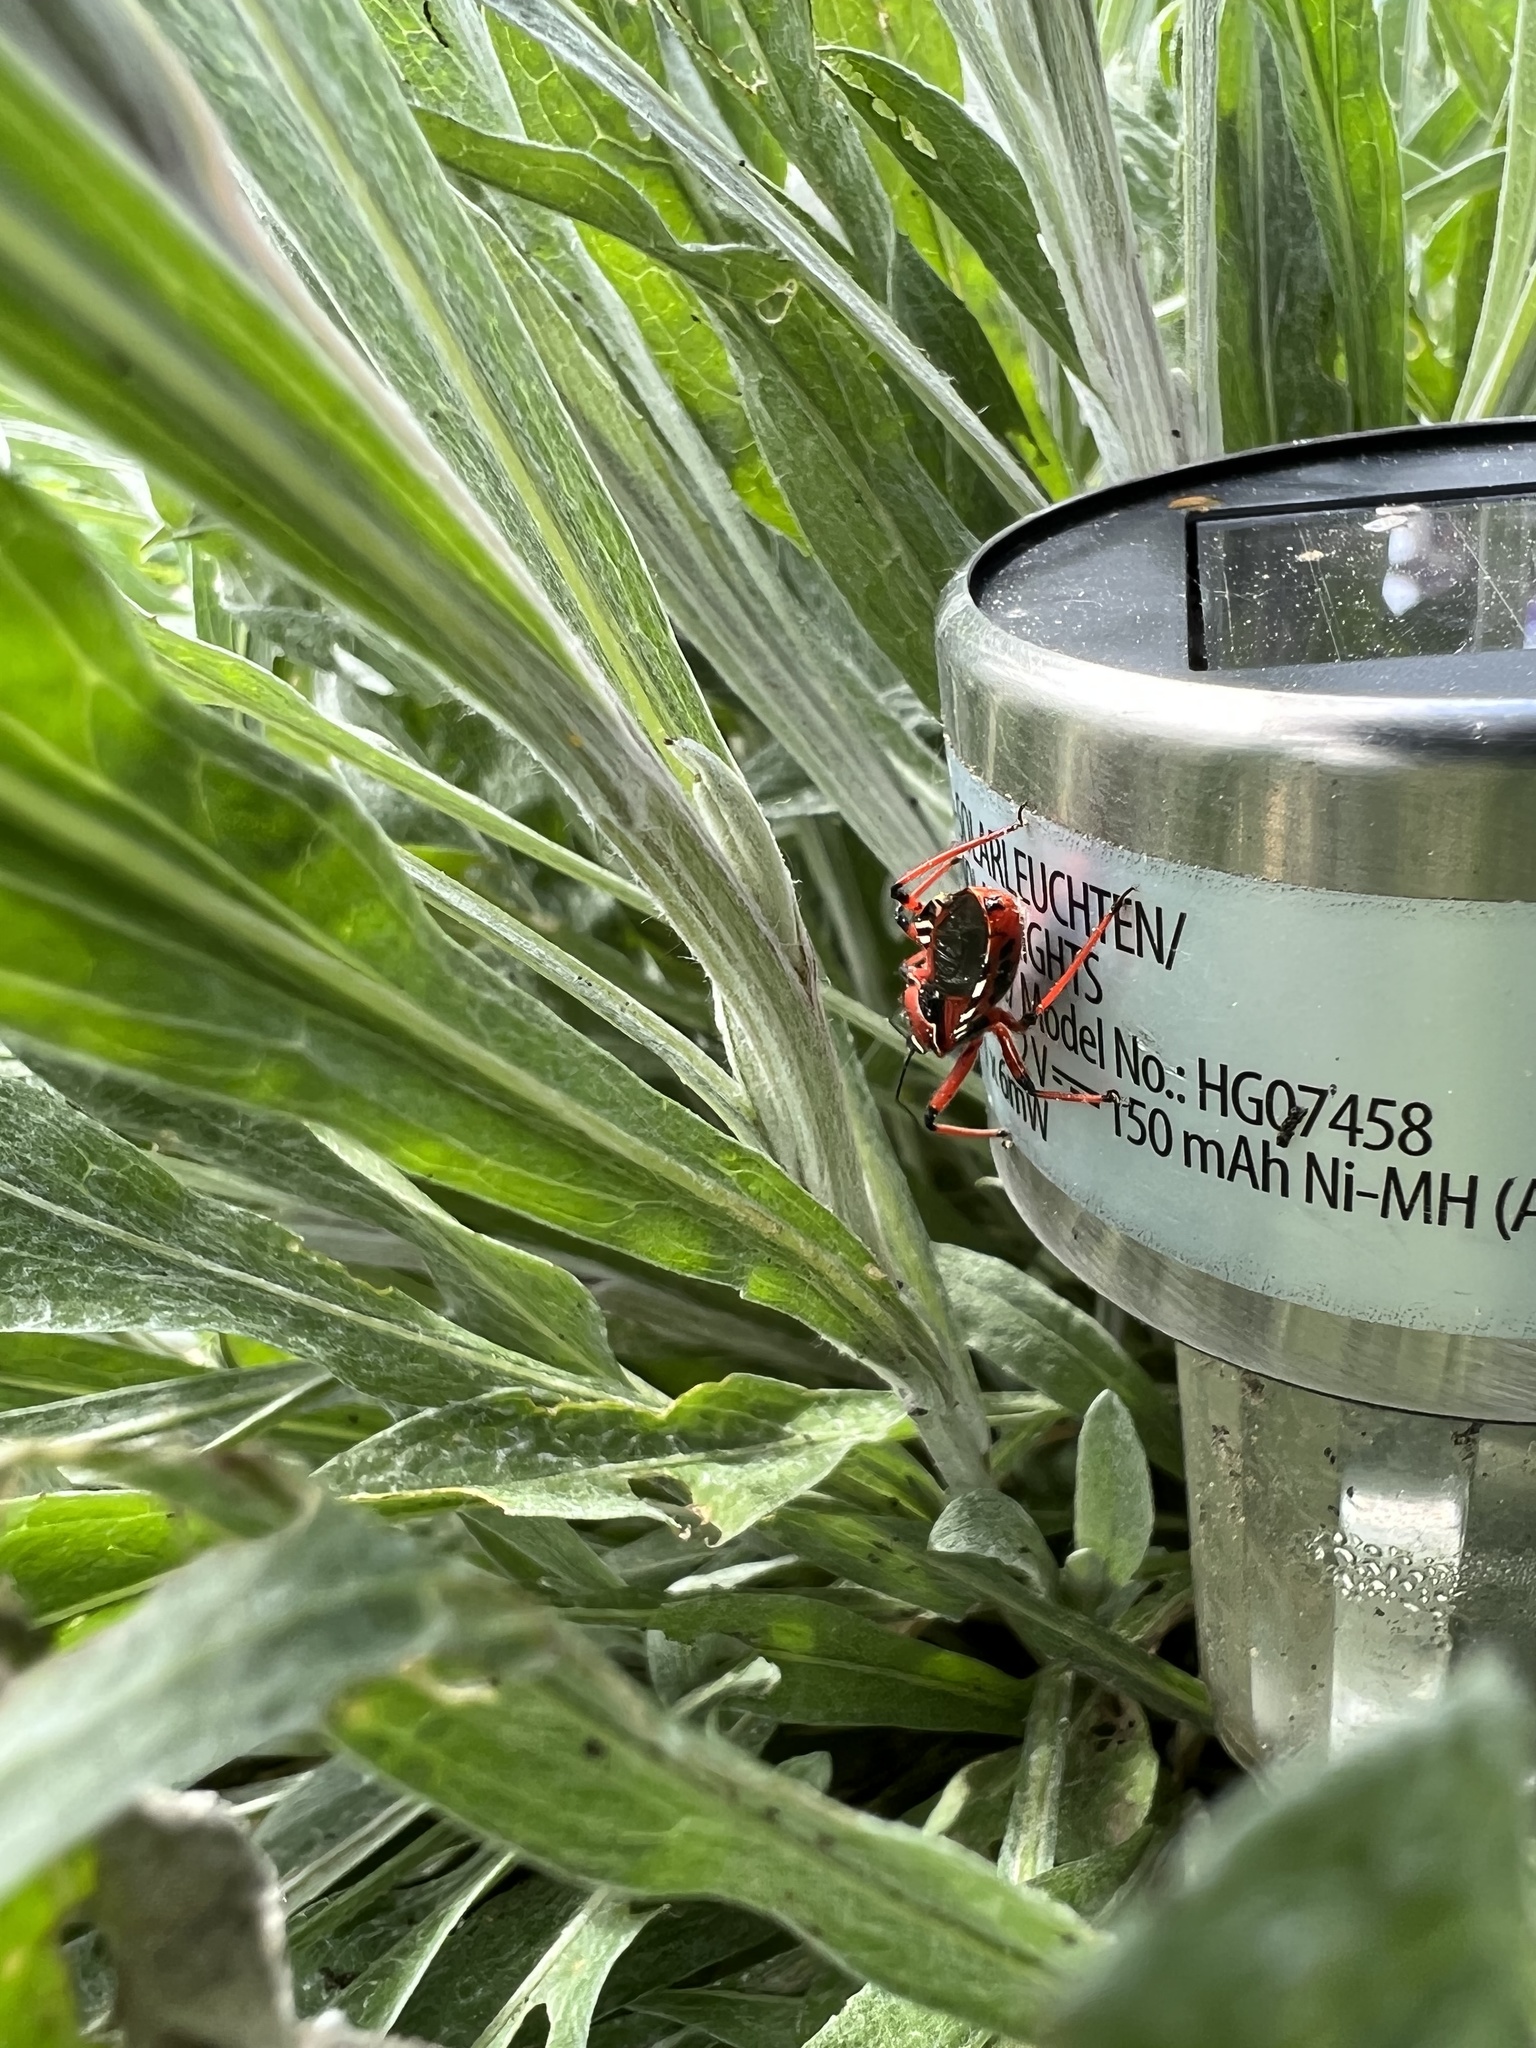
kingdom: Animalia
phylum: Arthropoda
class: Insecta
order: Hemiptera
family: Reduviidae
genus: Rhynocoris
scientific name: Rhynocoris iracundus
